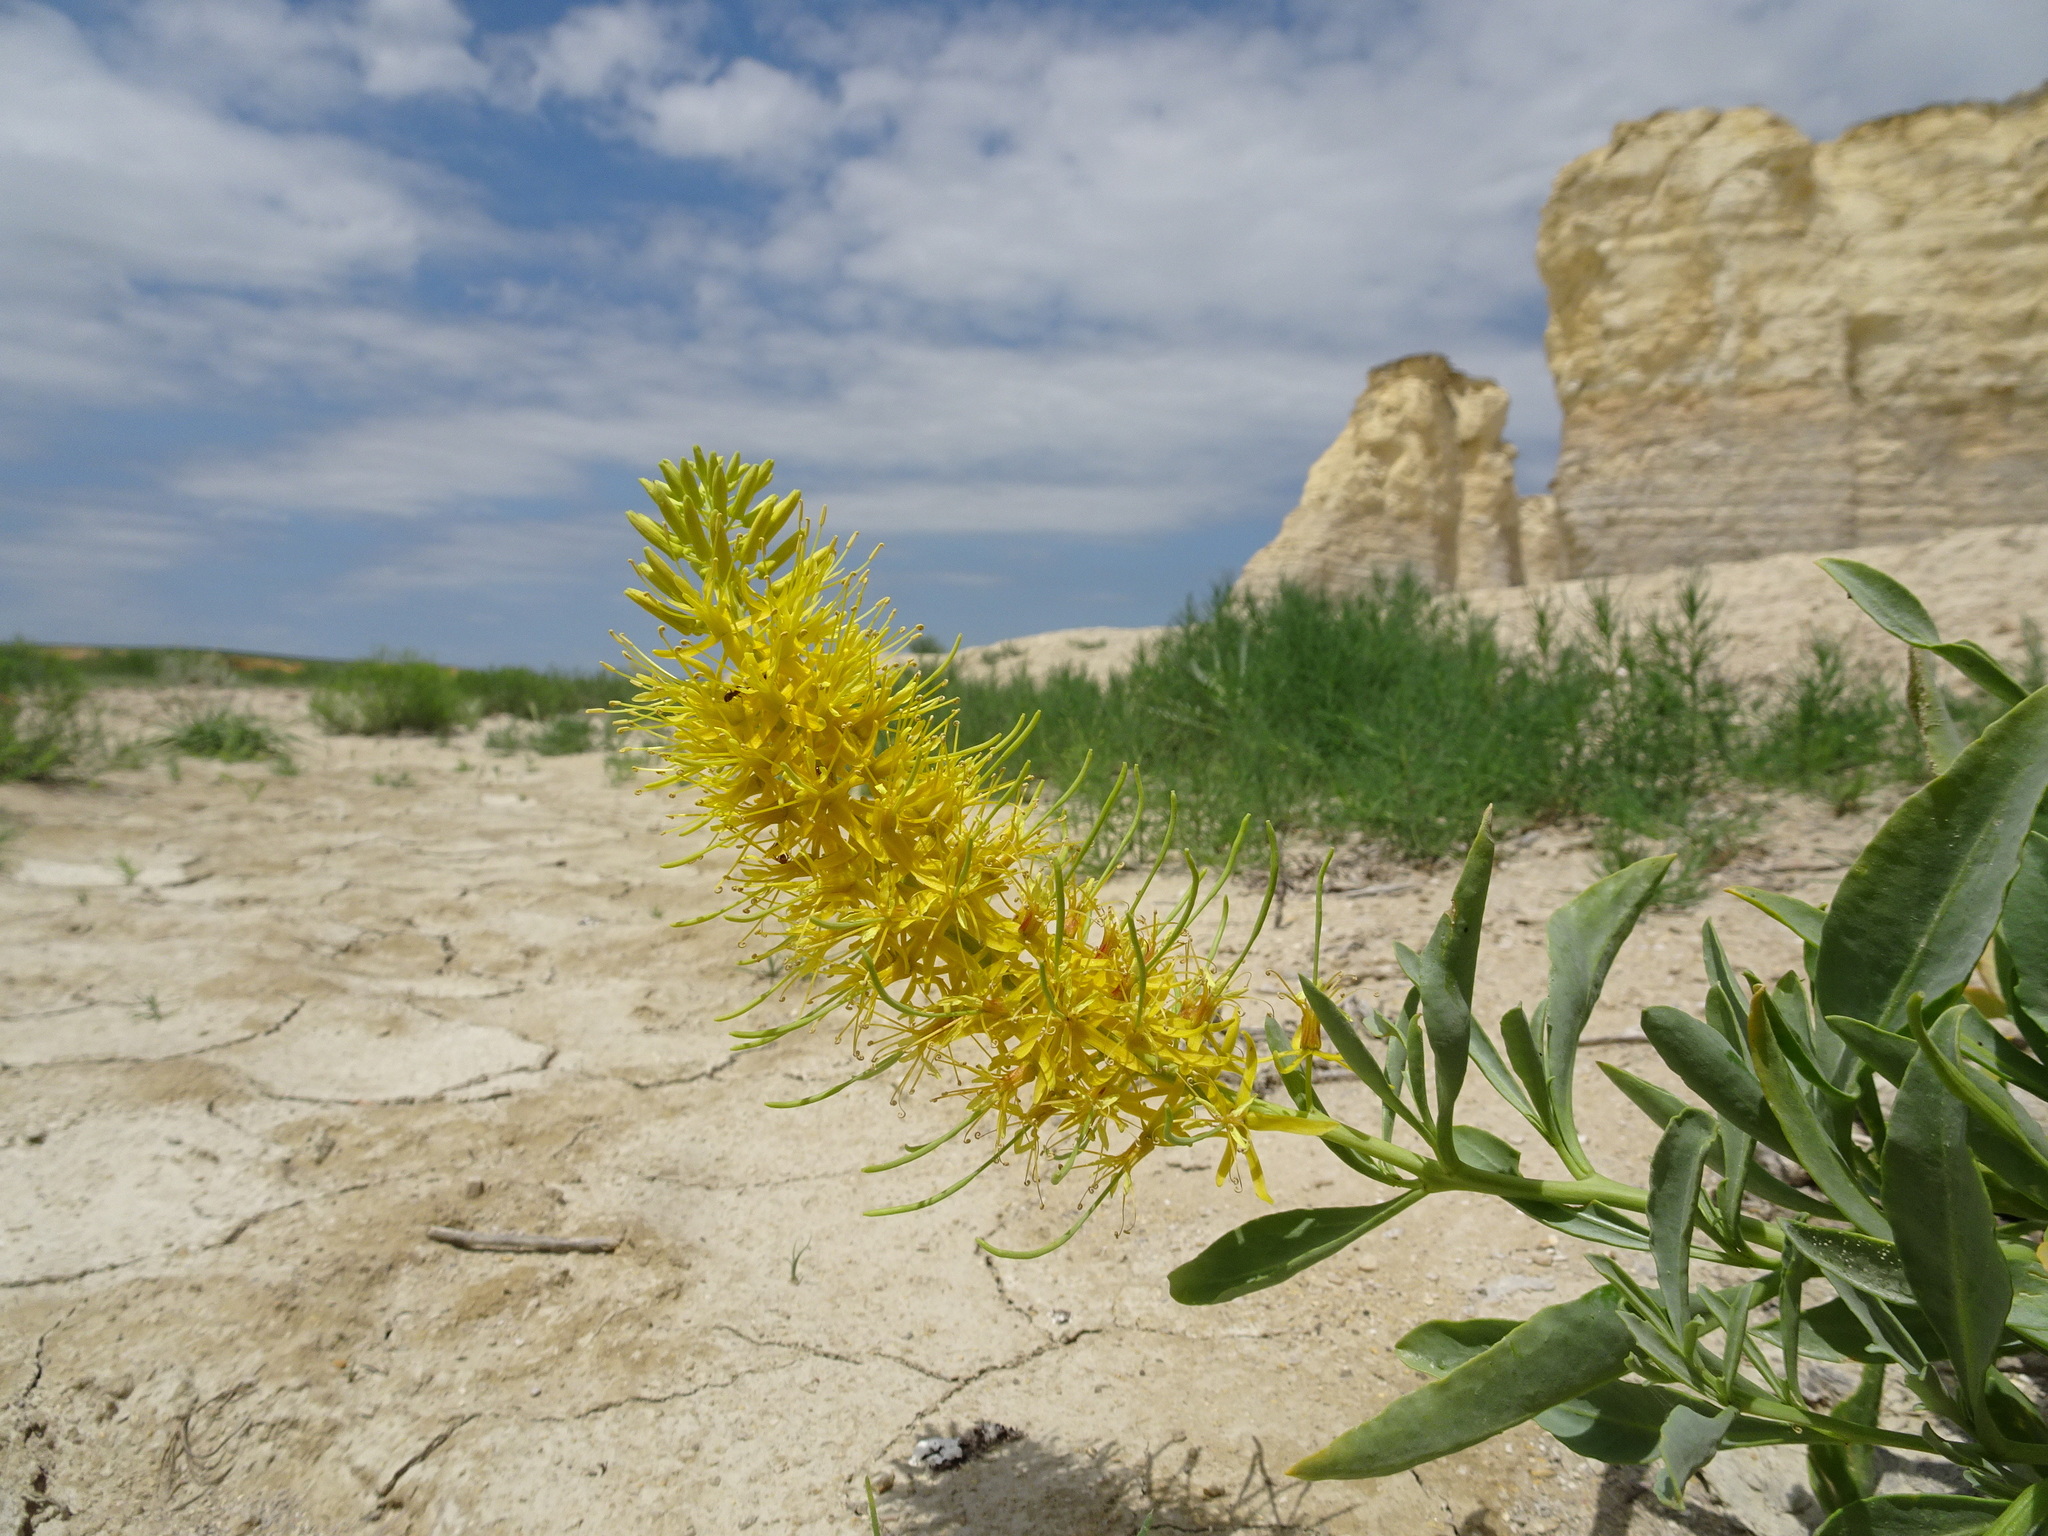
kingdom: Plantae
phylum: Tracheophyta
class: Magnoliopsida
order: Brassicales
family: Brassicaceae
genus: Stanleya
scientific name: Stanleya pinnata
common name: Prince's-plume
